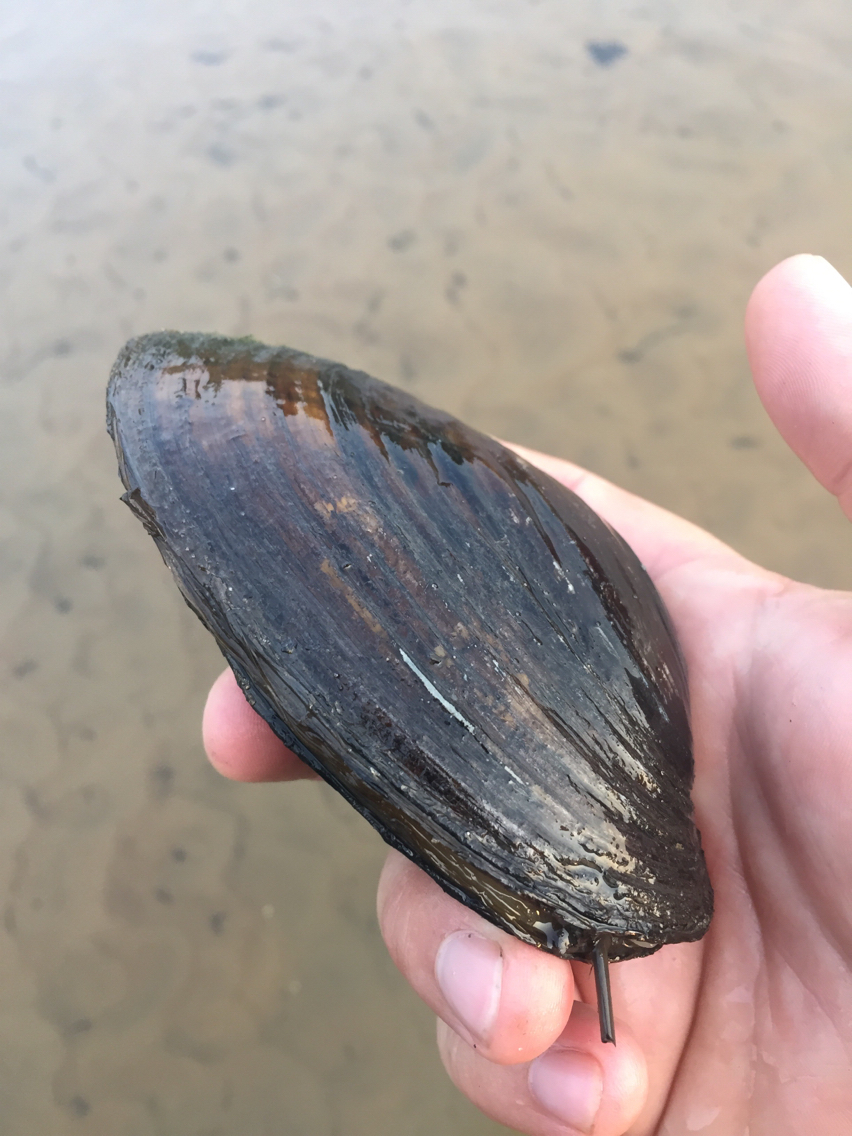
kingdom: Animalia
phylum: Mollusca
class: Bivalvia
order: Unionida
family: Unionidae
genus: Ortmanniana
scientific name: Ortmanniana ligamentina
